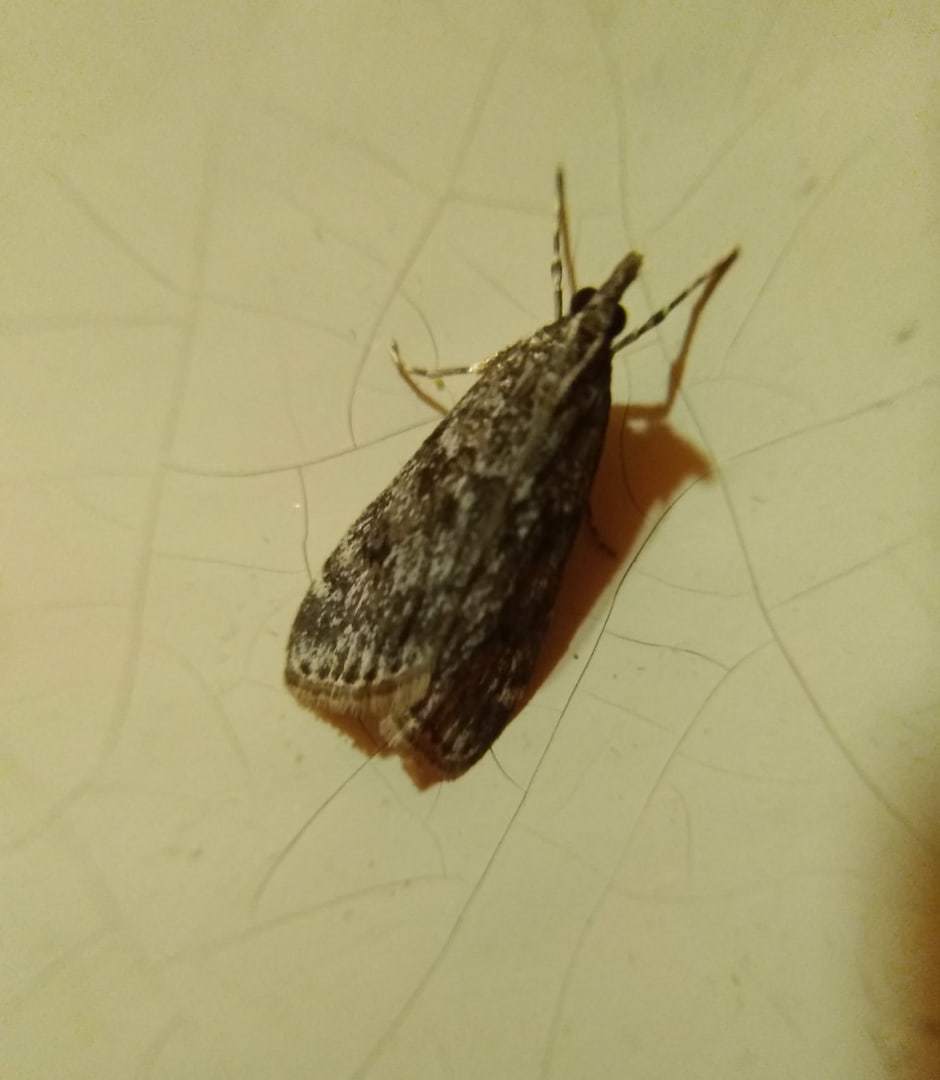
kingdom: Animalia
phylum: Arthropoda
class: Insecta
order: Lepidoptera
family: Crambidae
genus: Eudonia
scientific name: Eudonia truncicolella
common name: Ground-moss grey
